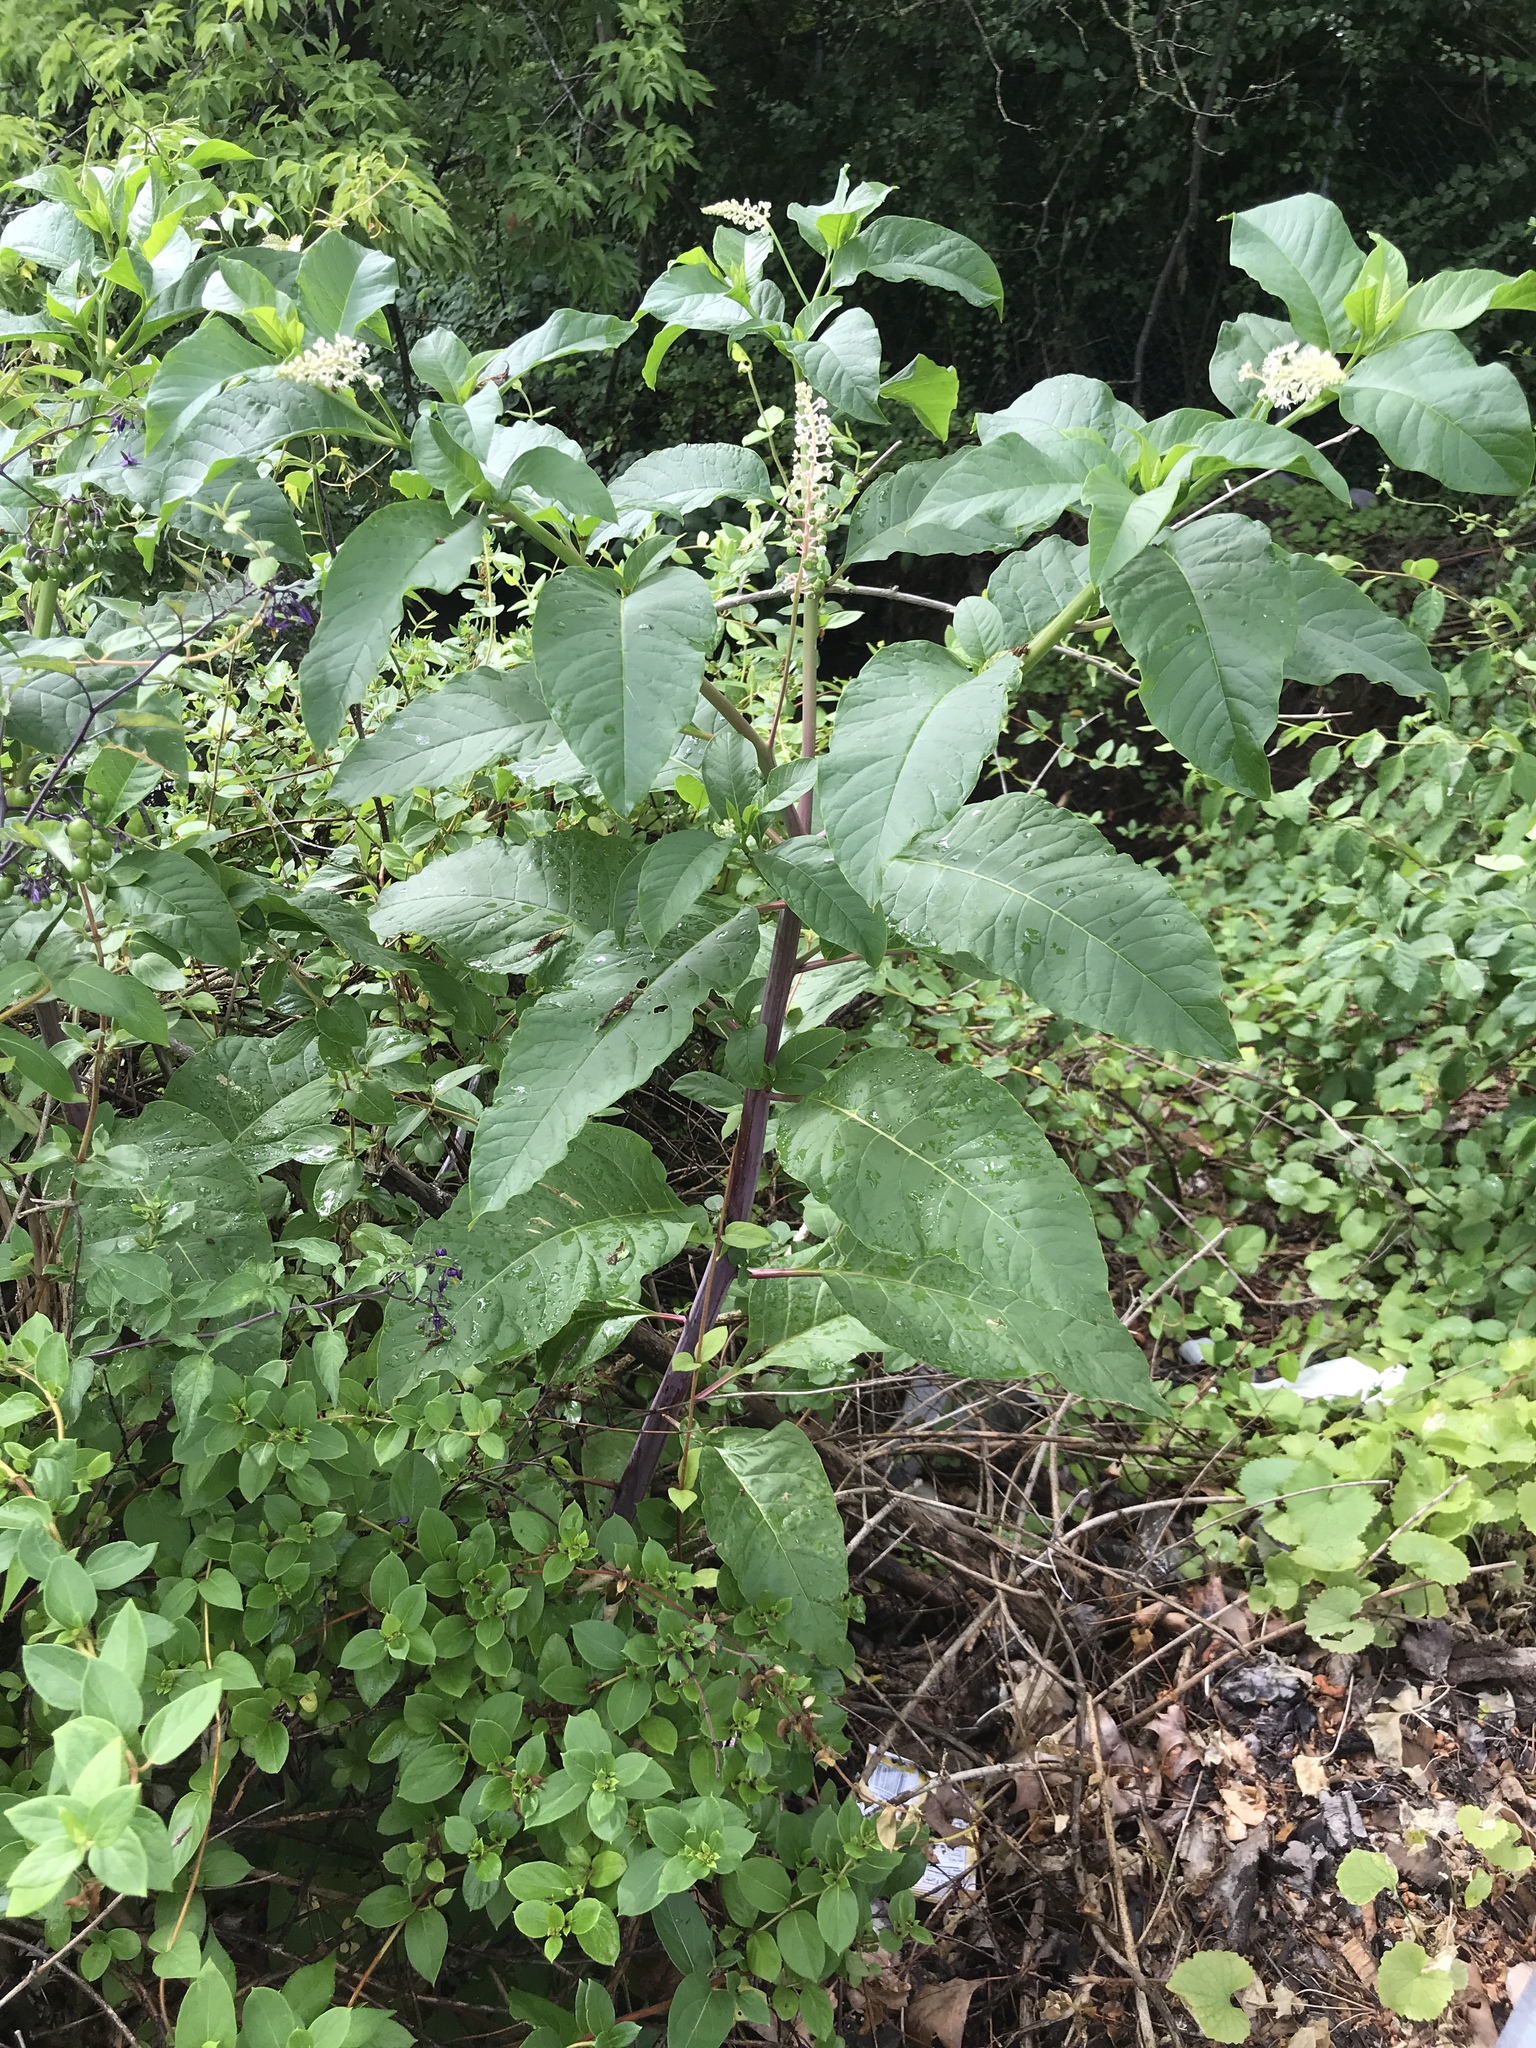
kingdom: Plantae
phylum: Tracheophyta
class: Magnoliopsida
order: Caryophyllales
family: Phytolaccaceae
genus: Phytolacca
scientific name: Phytolacca americana
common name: American pokeweed
